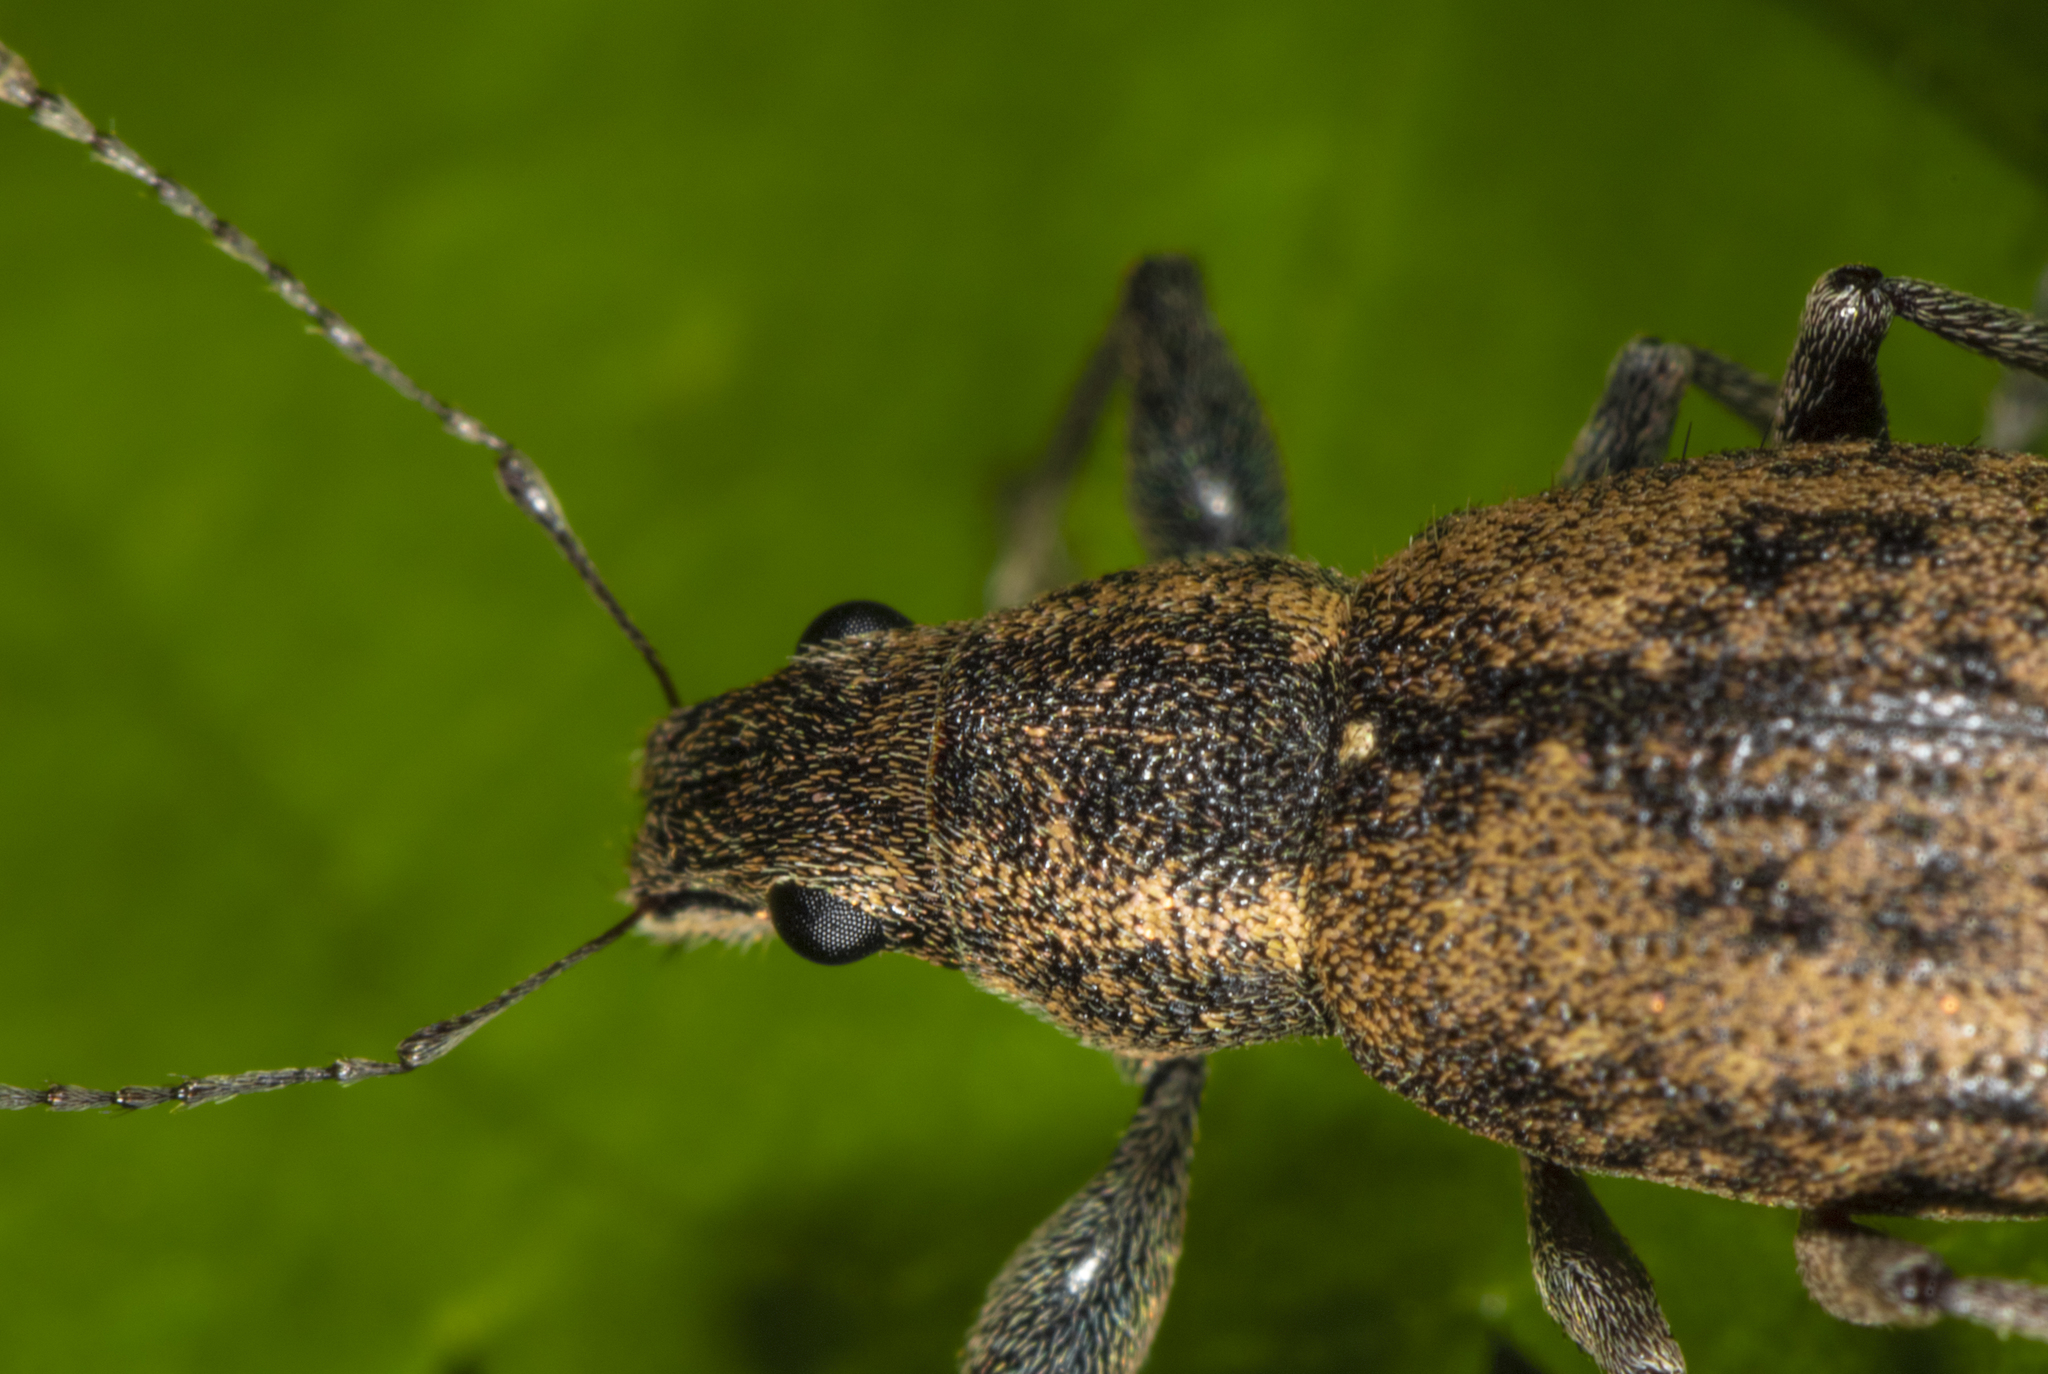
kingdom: Animalia
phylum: Arthropoda
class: Insecta
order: Coleoptera
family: Curculionidae
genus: Naupactus
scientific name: Naupactus versatilis
